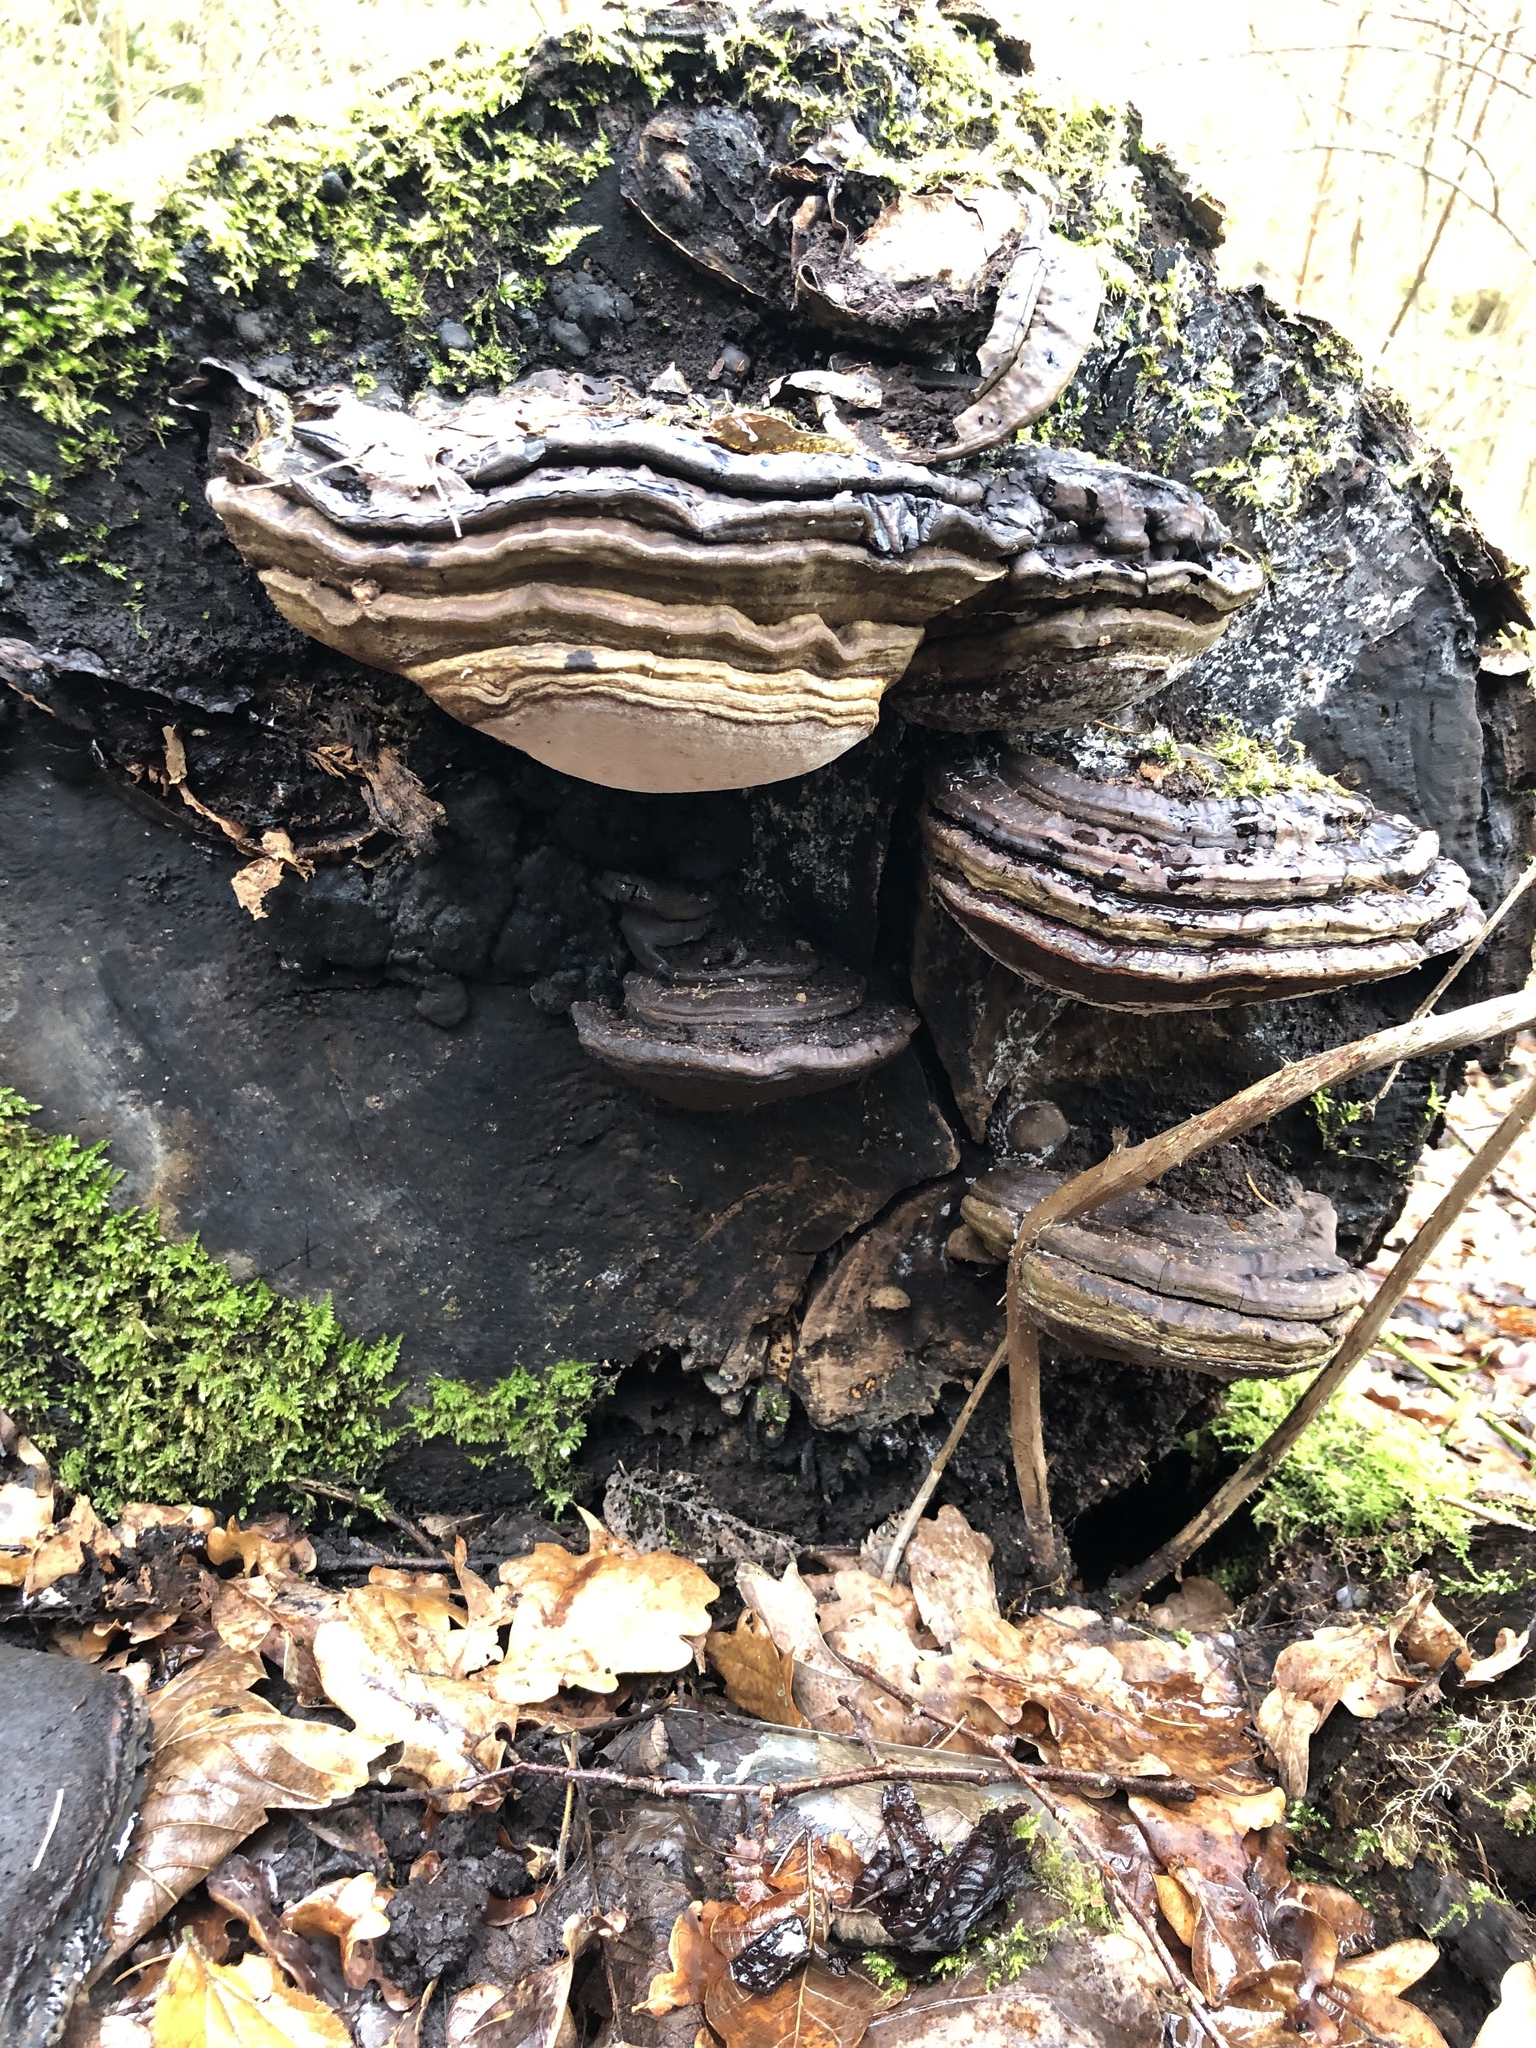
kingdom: Fungi
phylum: Basidiomycota
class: Agaricomycetes
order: Polyporales
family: Polyporaceae
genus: Fomes
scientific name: Fomes fomentarius
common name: Hoof fungus
